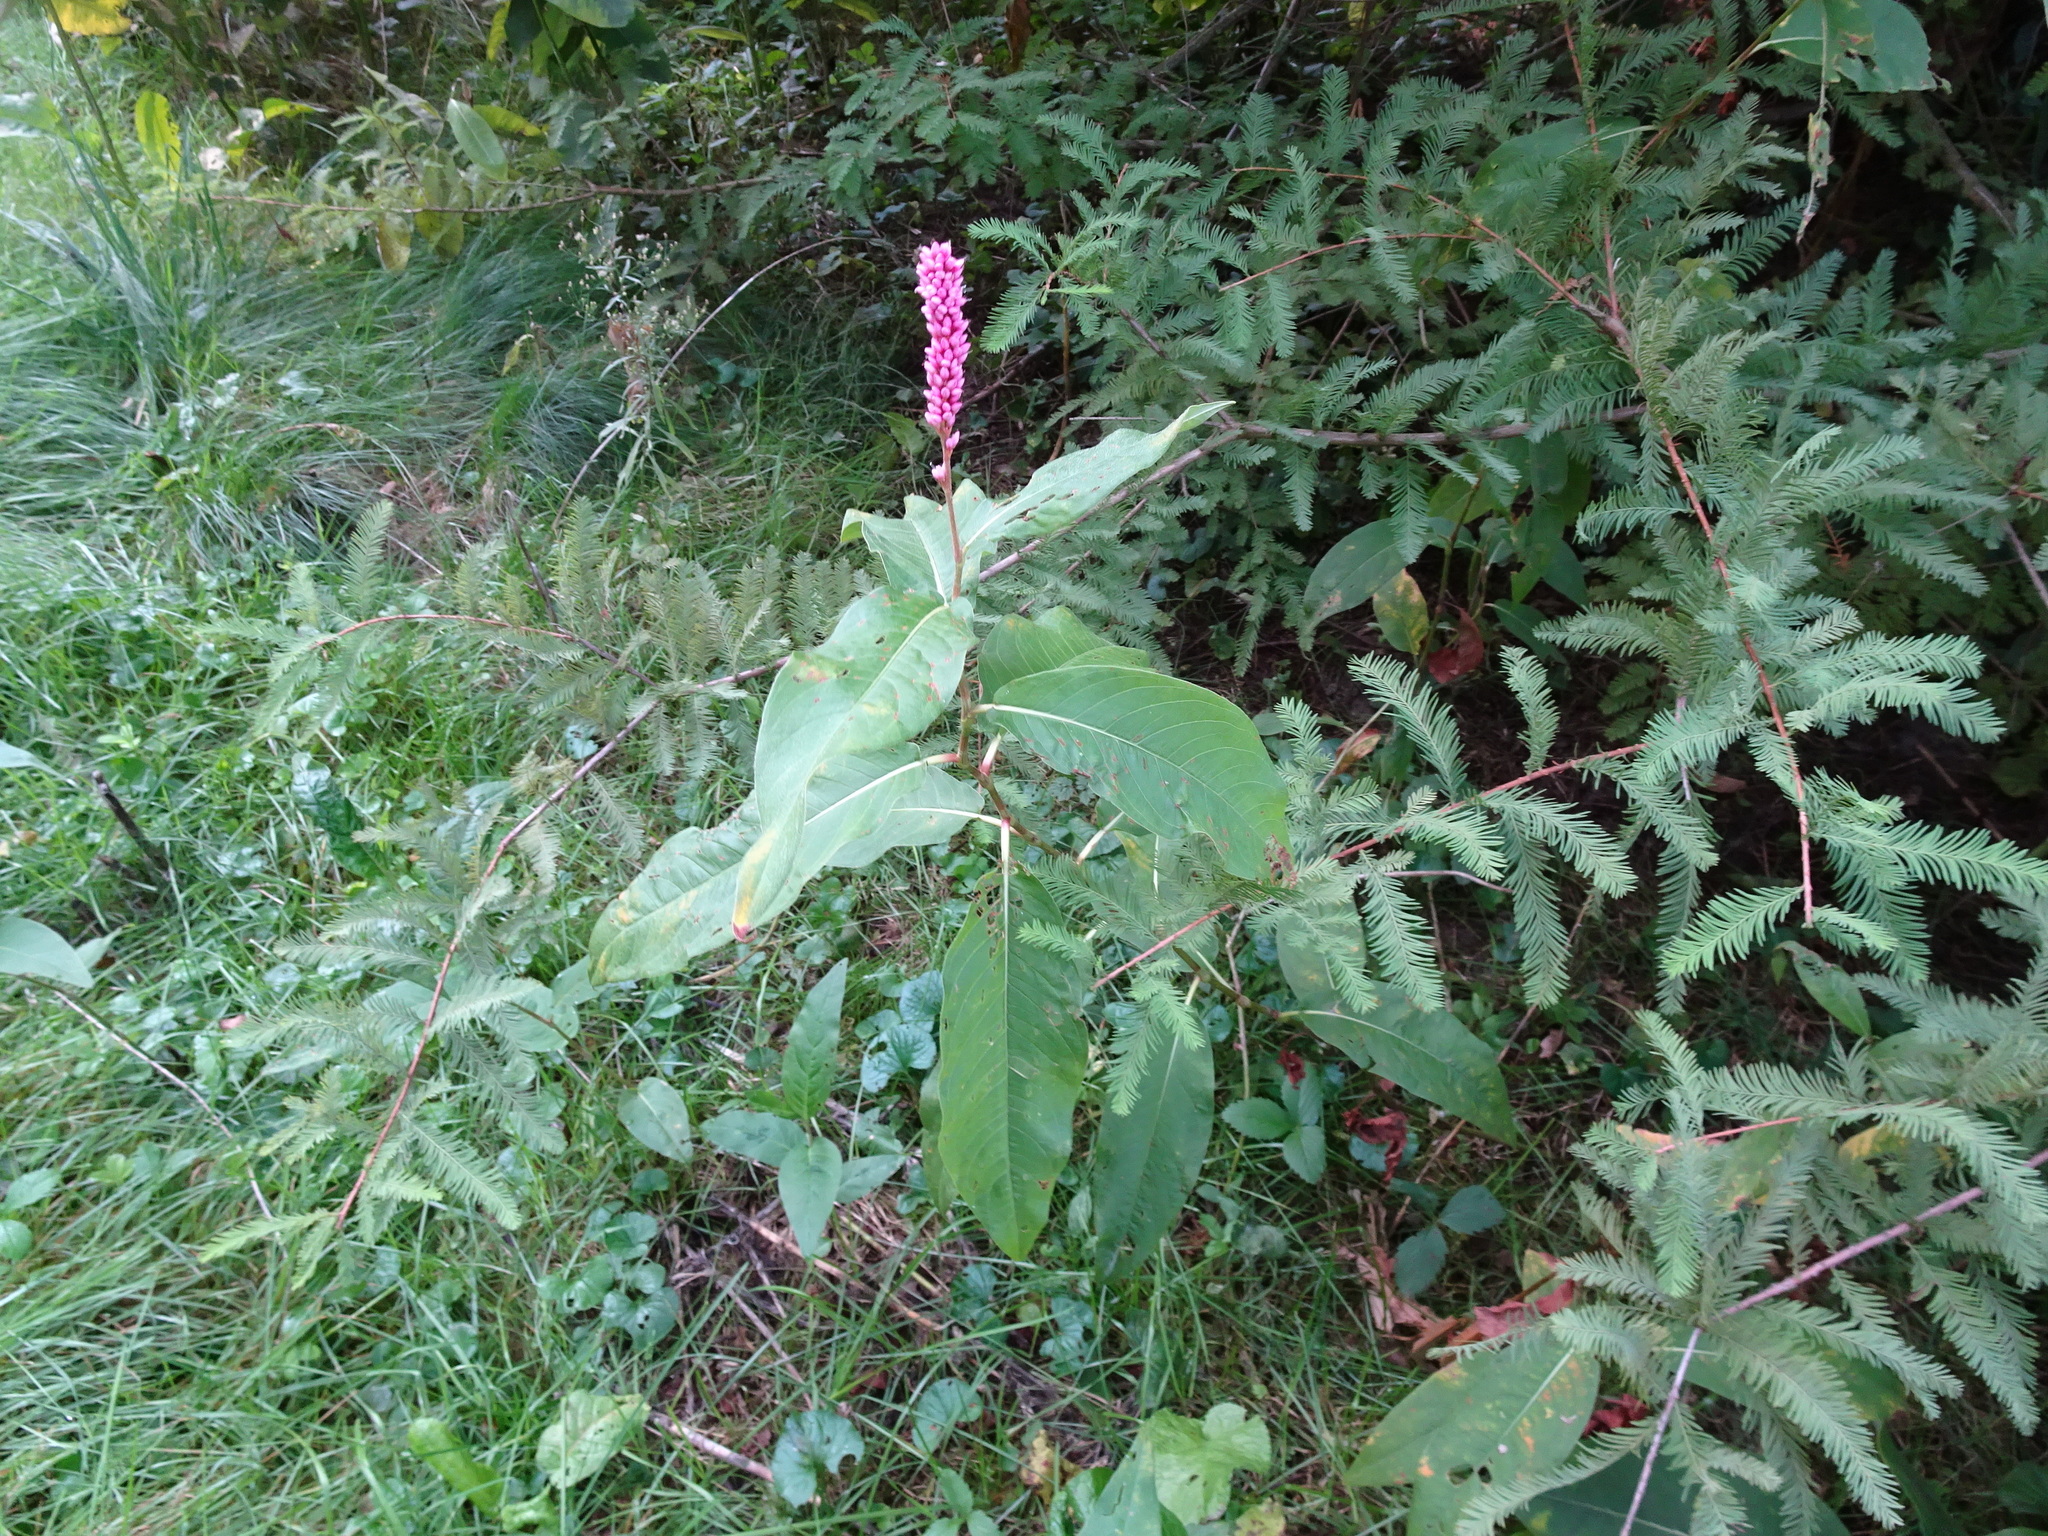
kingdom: Plantae
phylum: Tracheophyta
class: Magnoliopsida
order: Caryophyllales
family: Polygonaceae
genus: Persicaria
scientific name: Persicaria amphibia
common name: Amphibious bistort
